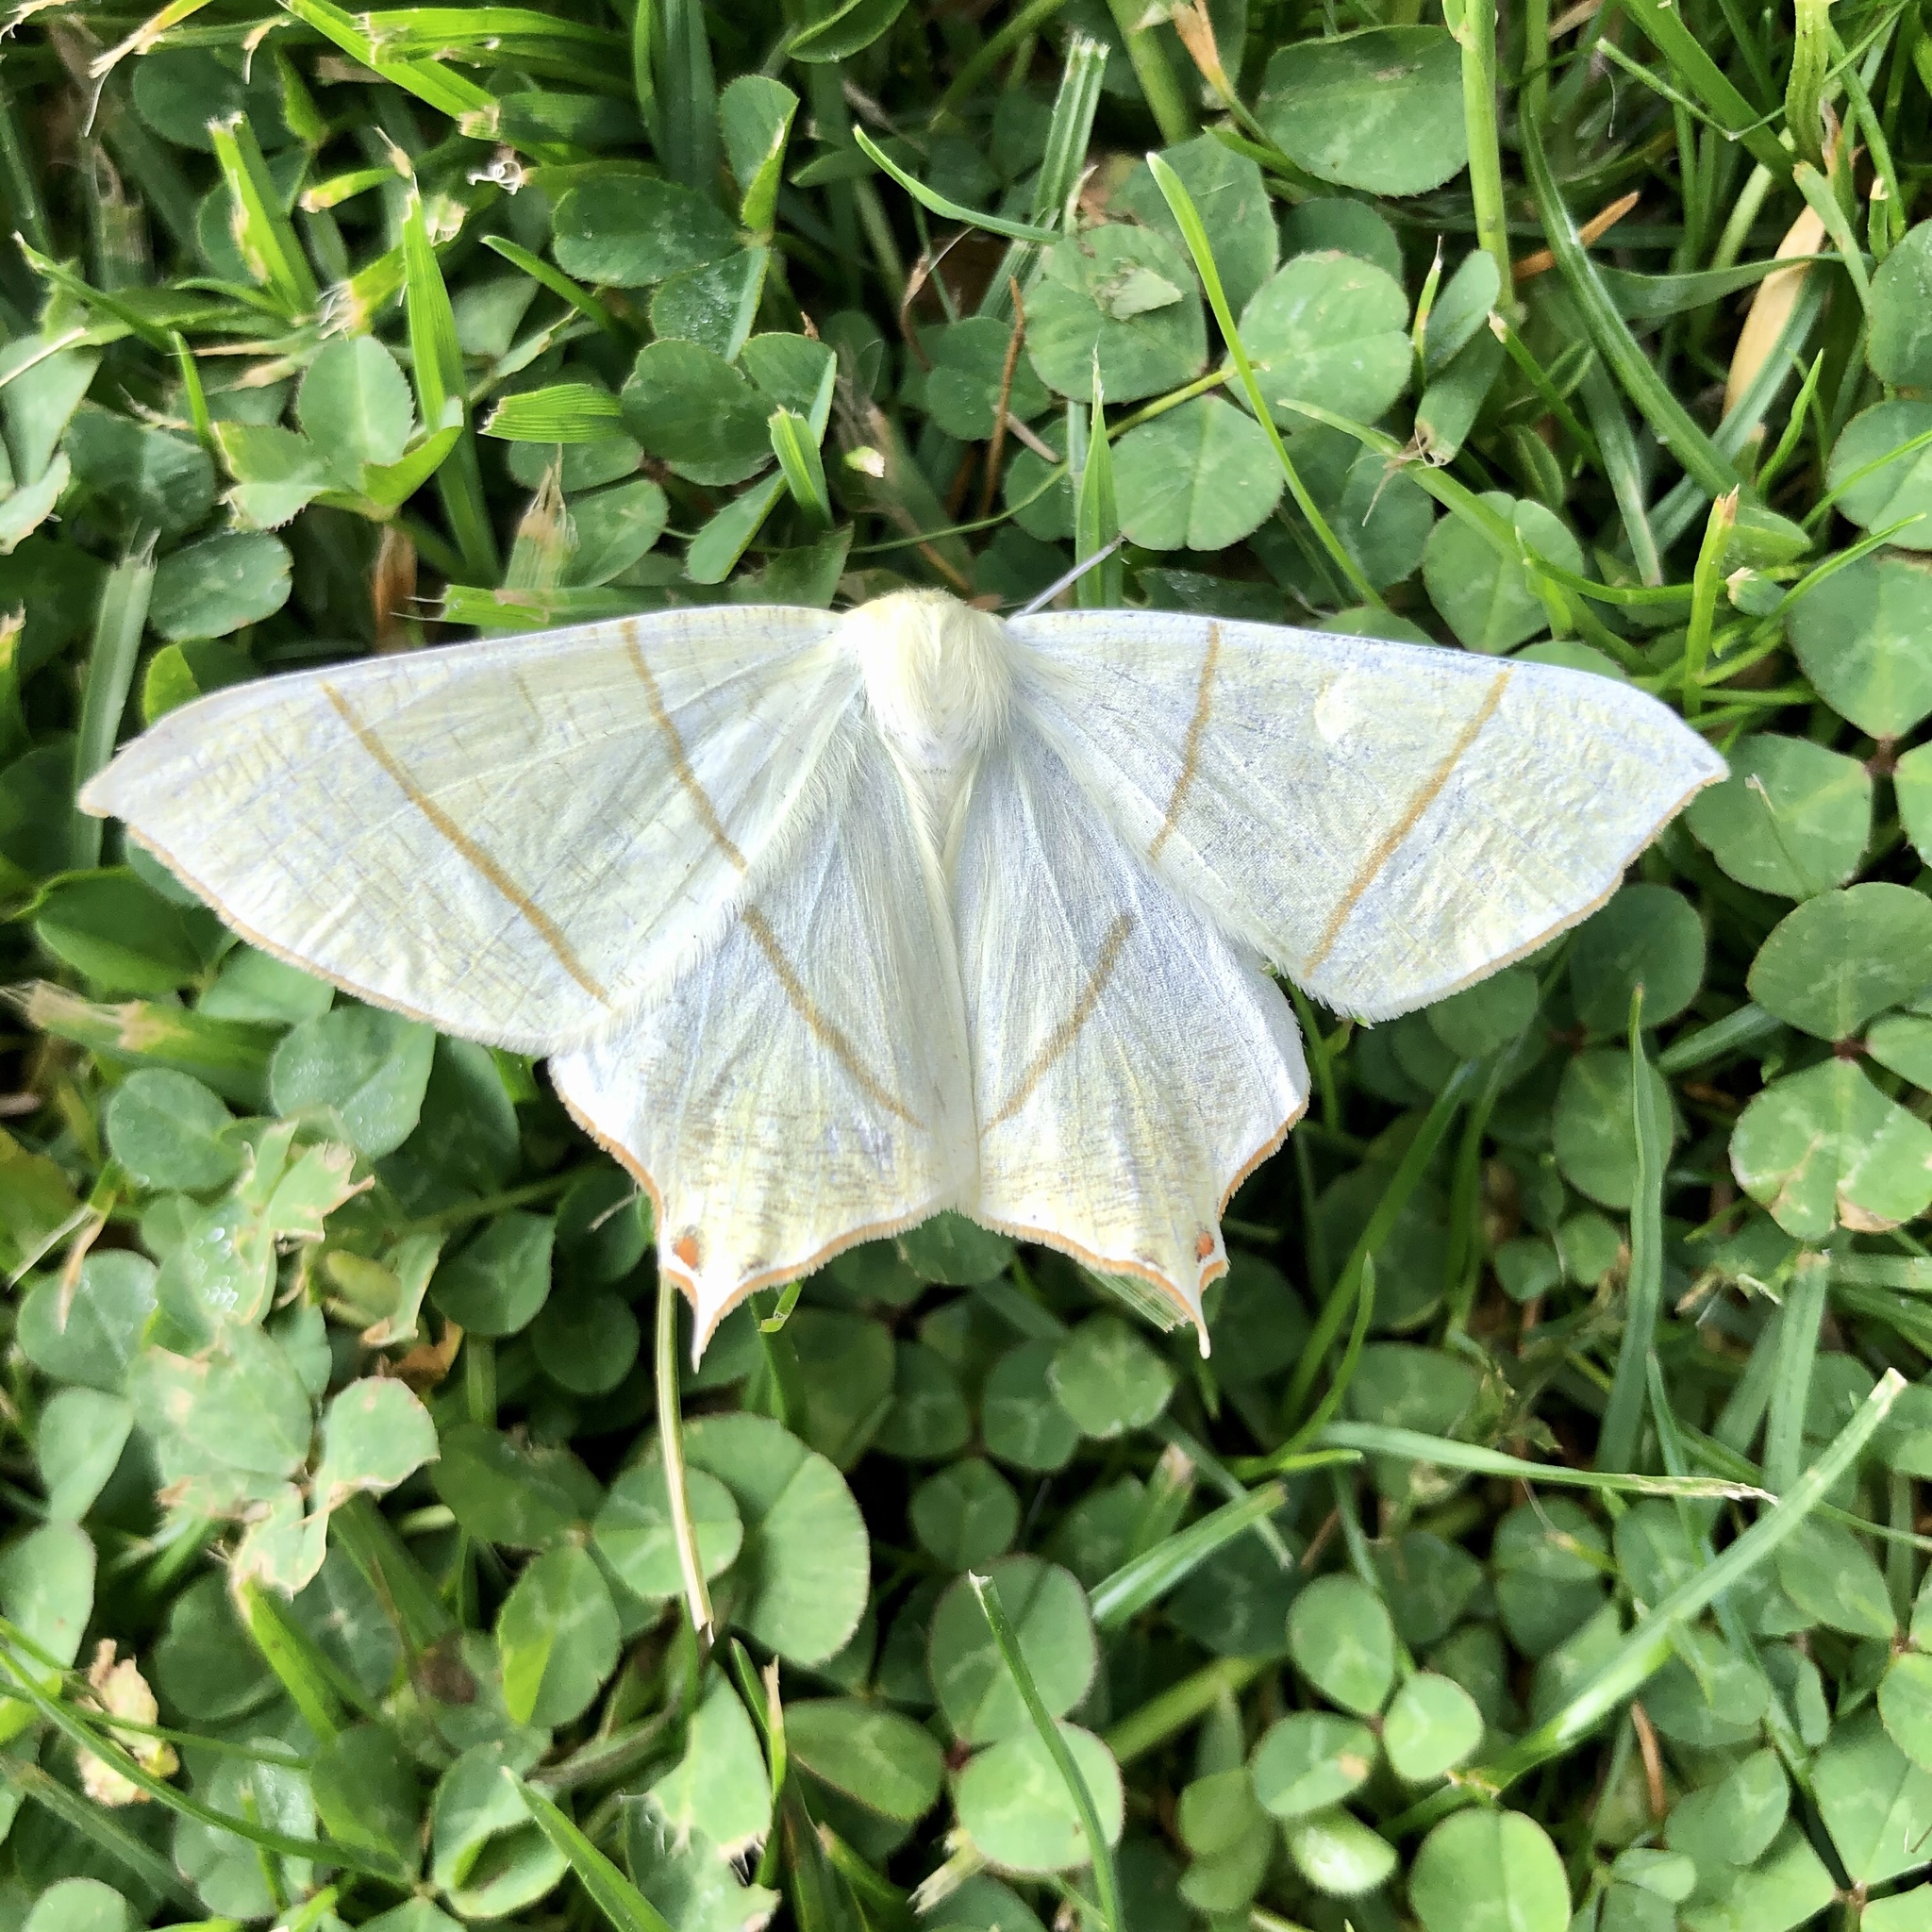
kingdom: Animalia
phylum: Arthropoda
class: Insecta
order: Lepidoptera
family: Geometridae
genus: Ourapteryx
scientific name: Ourapteryx sambucaria
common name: Swallow-tailed moth
